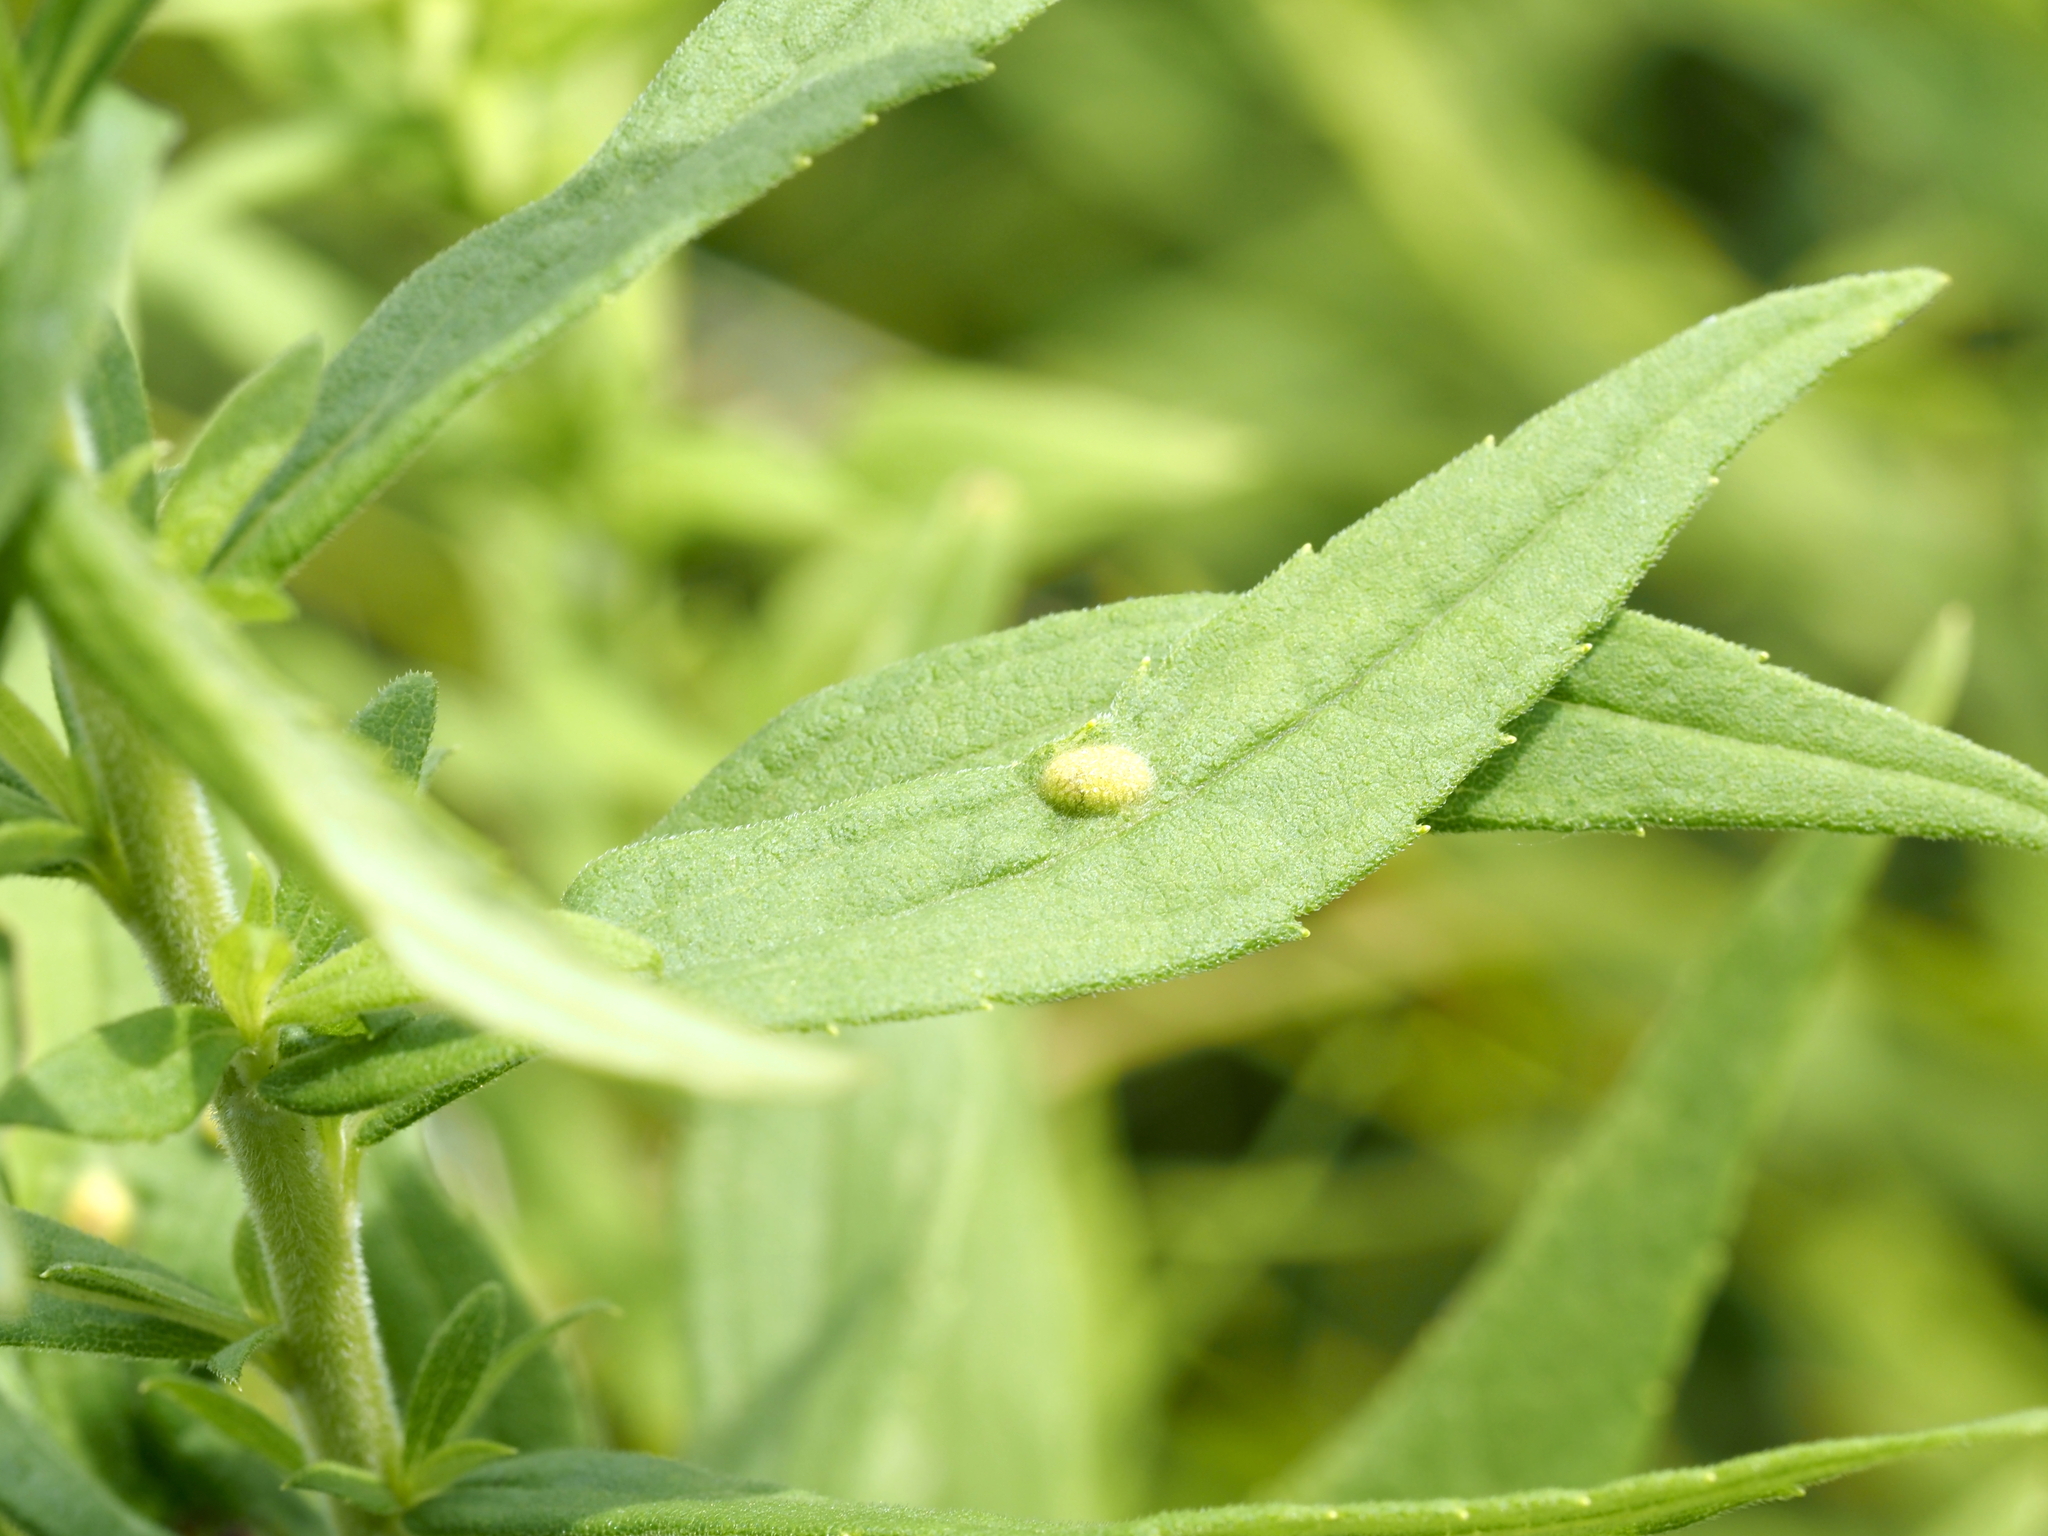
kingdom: Animalia
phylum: Arthropoda
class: Insecta
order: Diptera
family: Cecidomyiidae
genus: Asphondylia
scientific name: Asphondylia solidaginis
